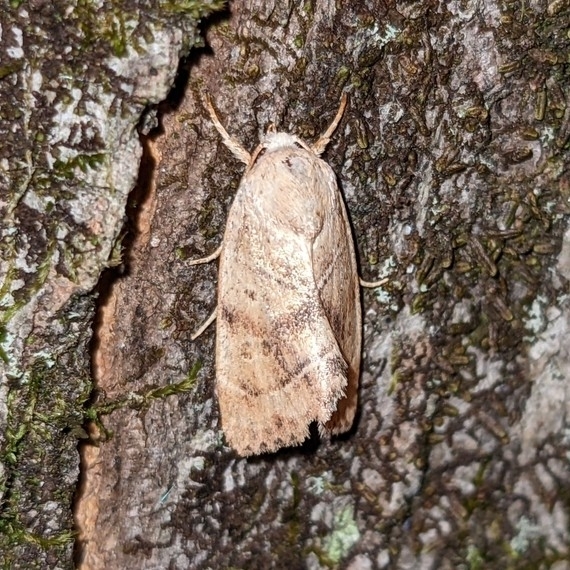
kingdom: Animalia
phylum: Arthropoda
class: Insecta
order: Lepidoptera
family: Noctuidae
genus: Cosmia
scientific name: Cosmia calami
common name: American dun-bar moth
